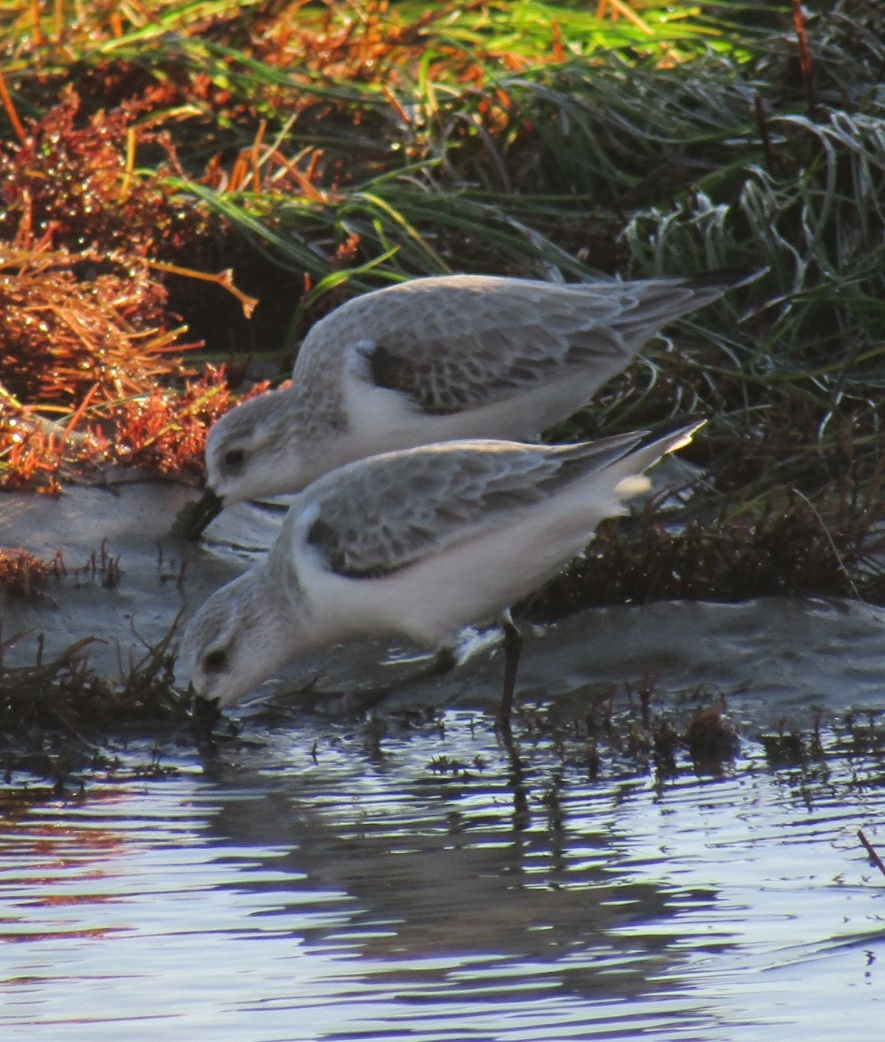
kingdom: Animalia
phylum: Chordata
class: Aves
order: Charadriiformes
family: Scolopacidae
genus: Calidris
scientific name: Calidris alba
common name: Sanderling
